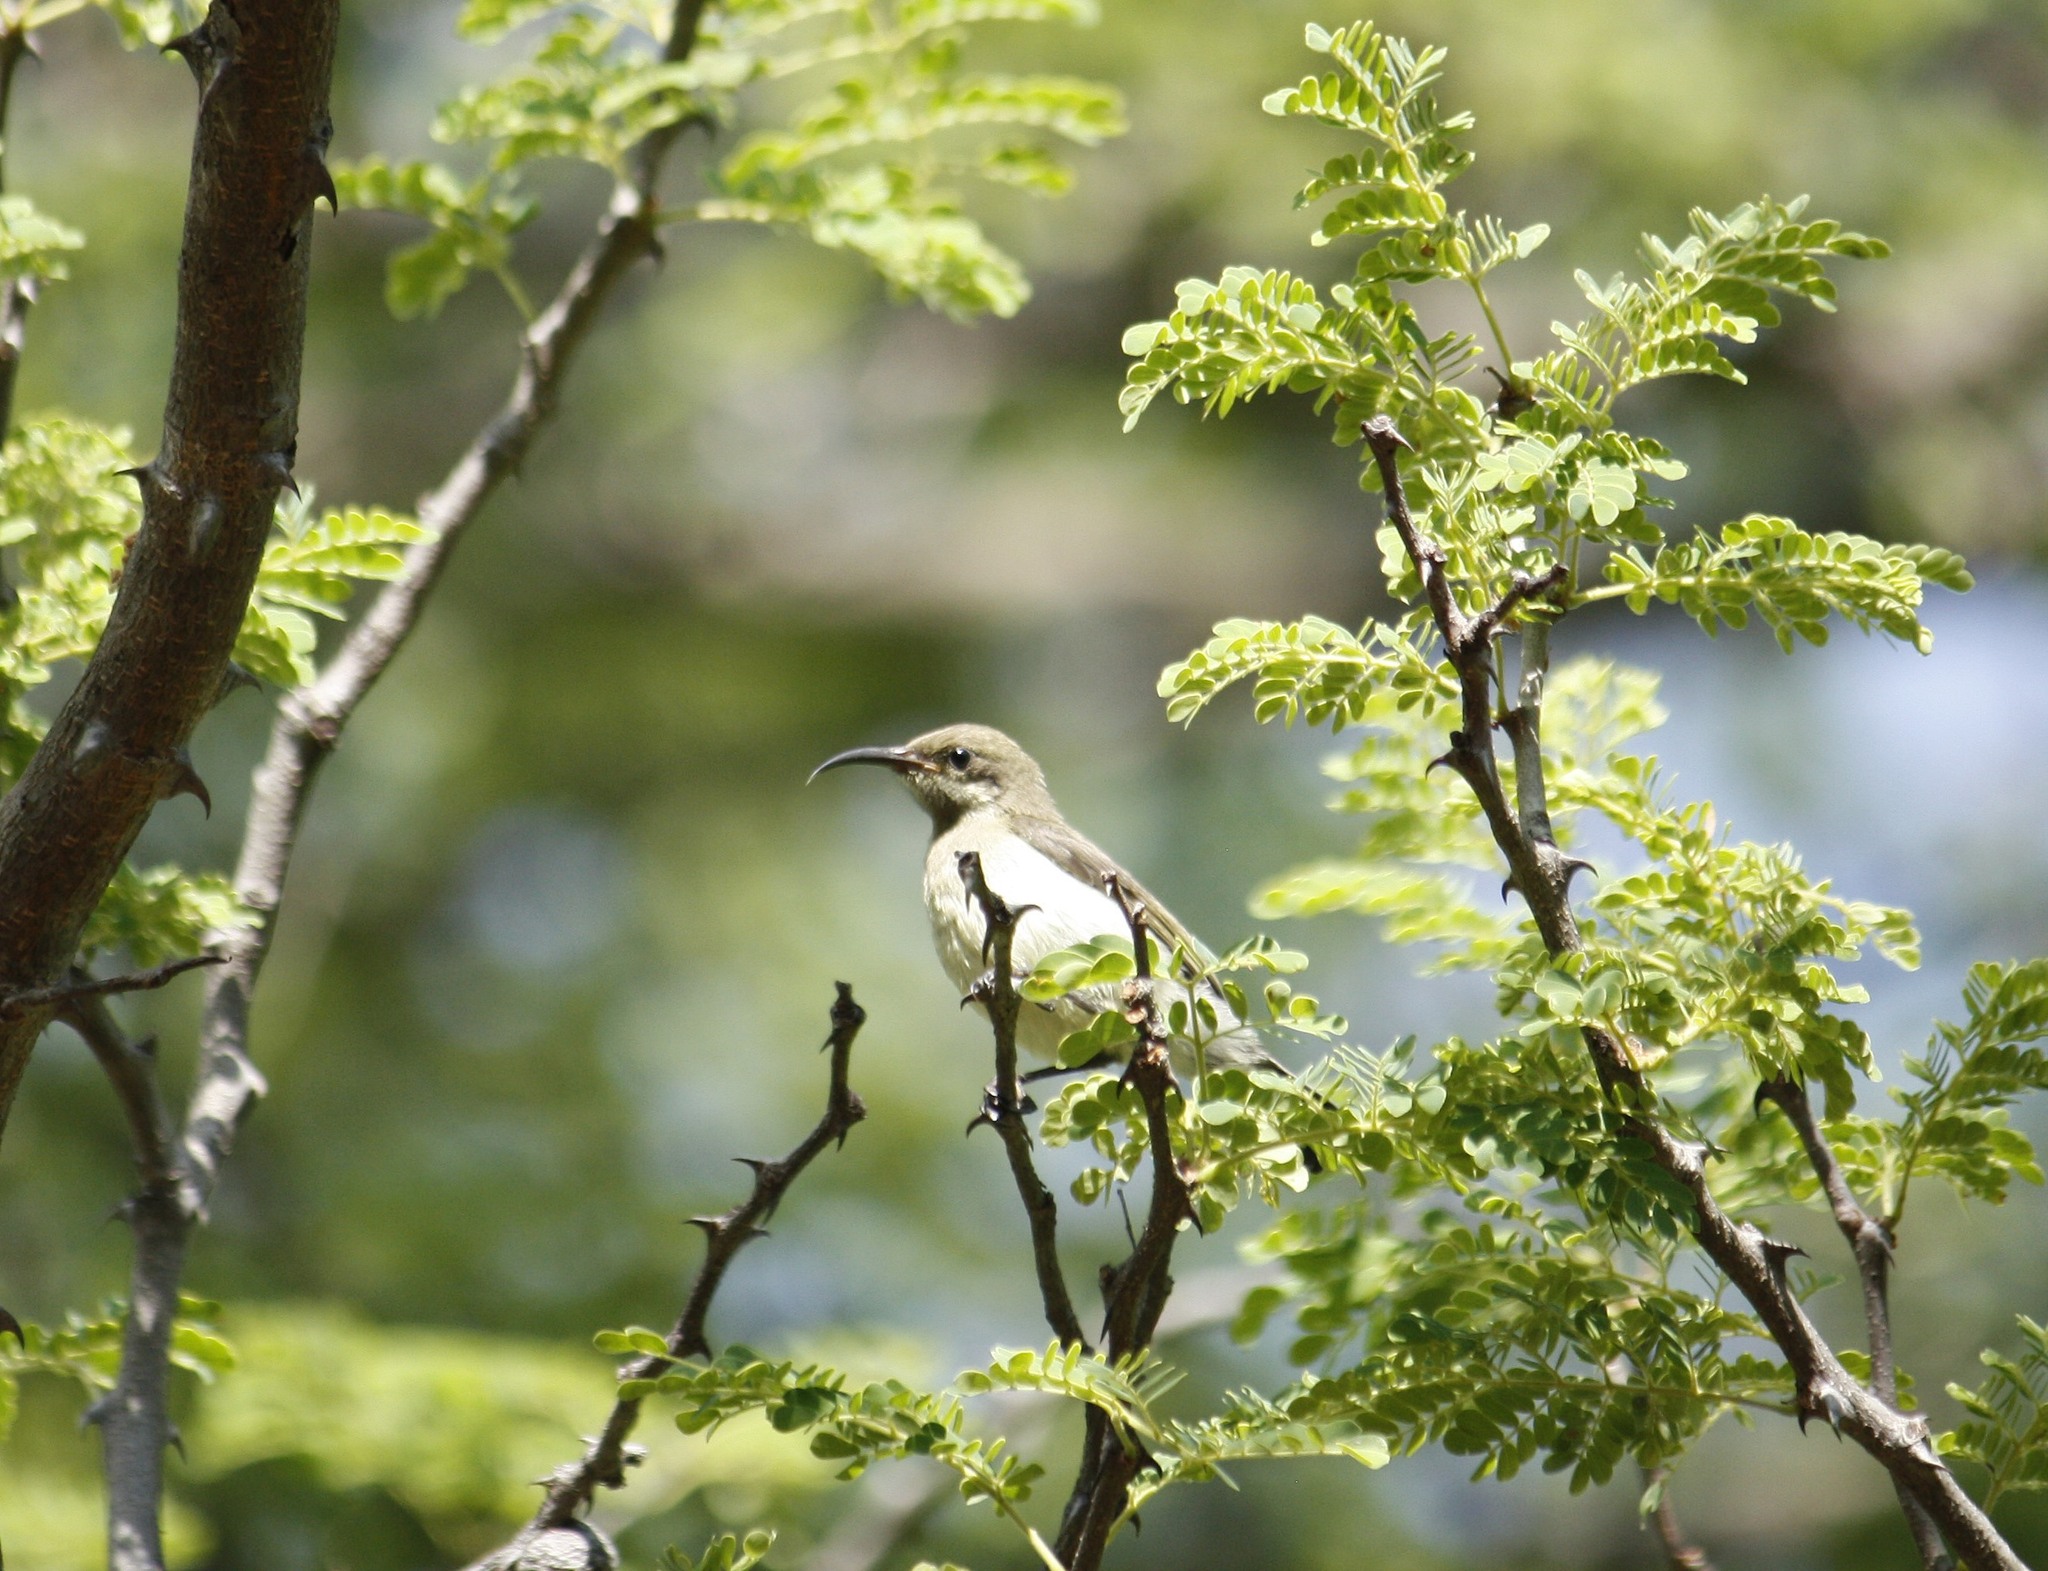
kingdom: Animalia
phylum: Chordata
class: Aves
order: Passeriformes
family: Nectariniidae
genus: Cinnyris
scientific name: Cinnyris talatala
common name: White-bellied sunbird
